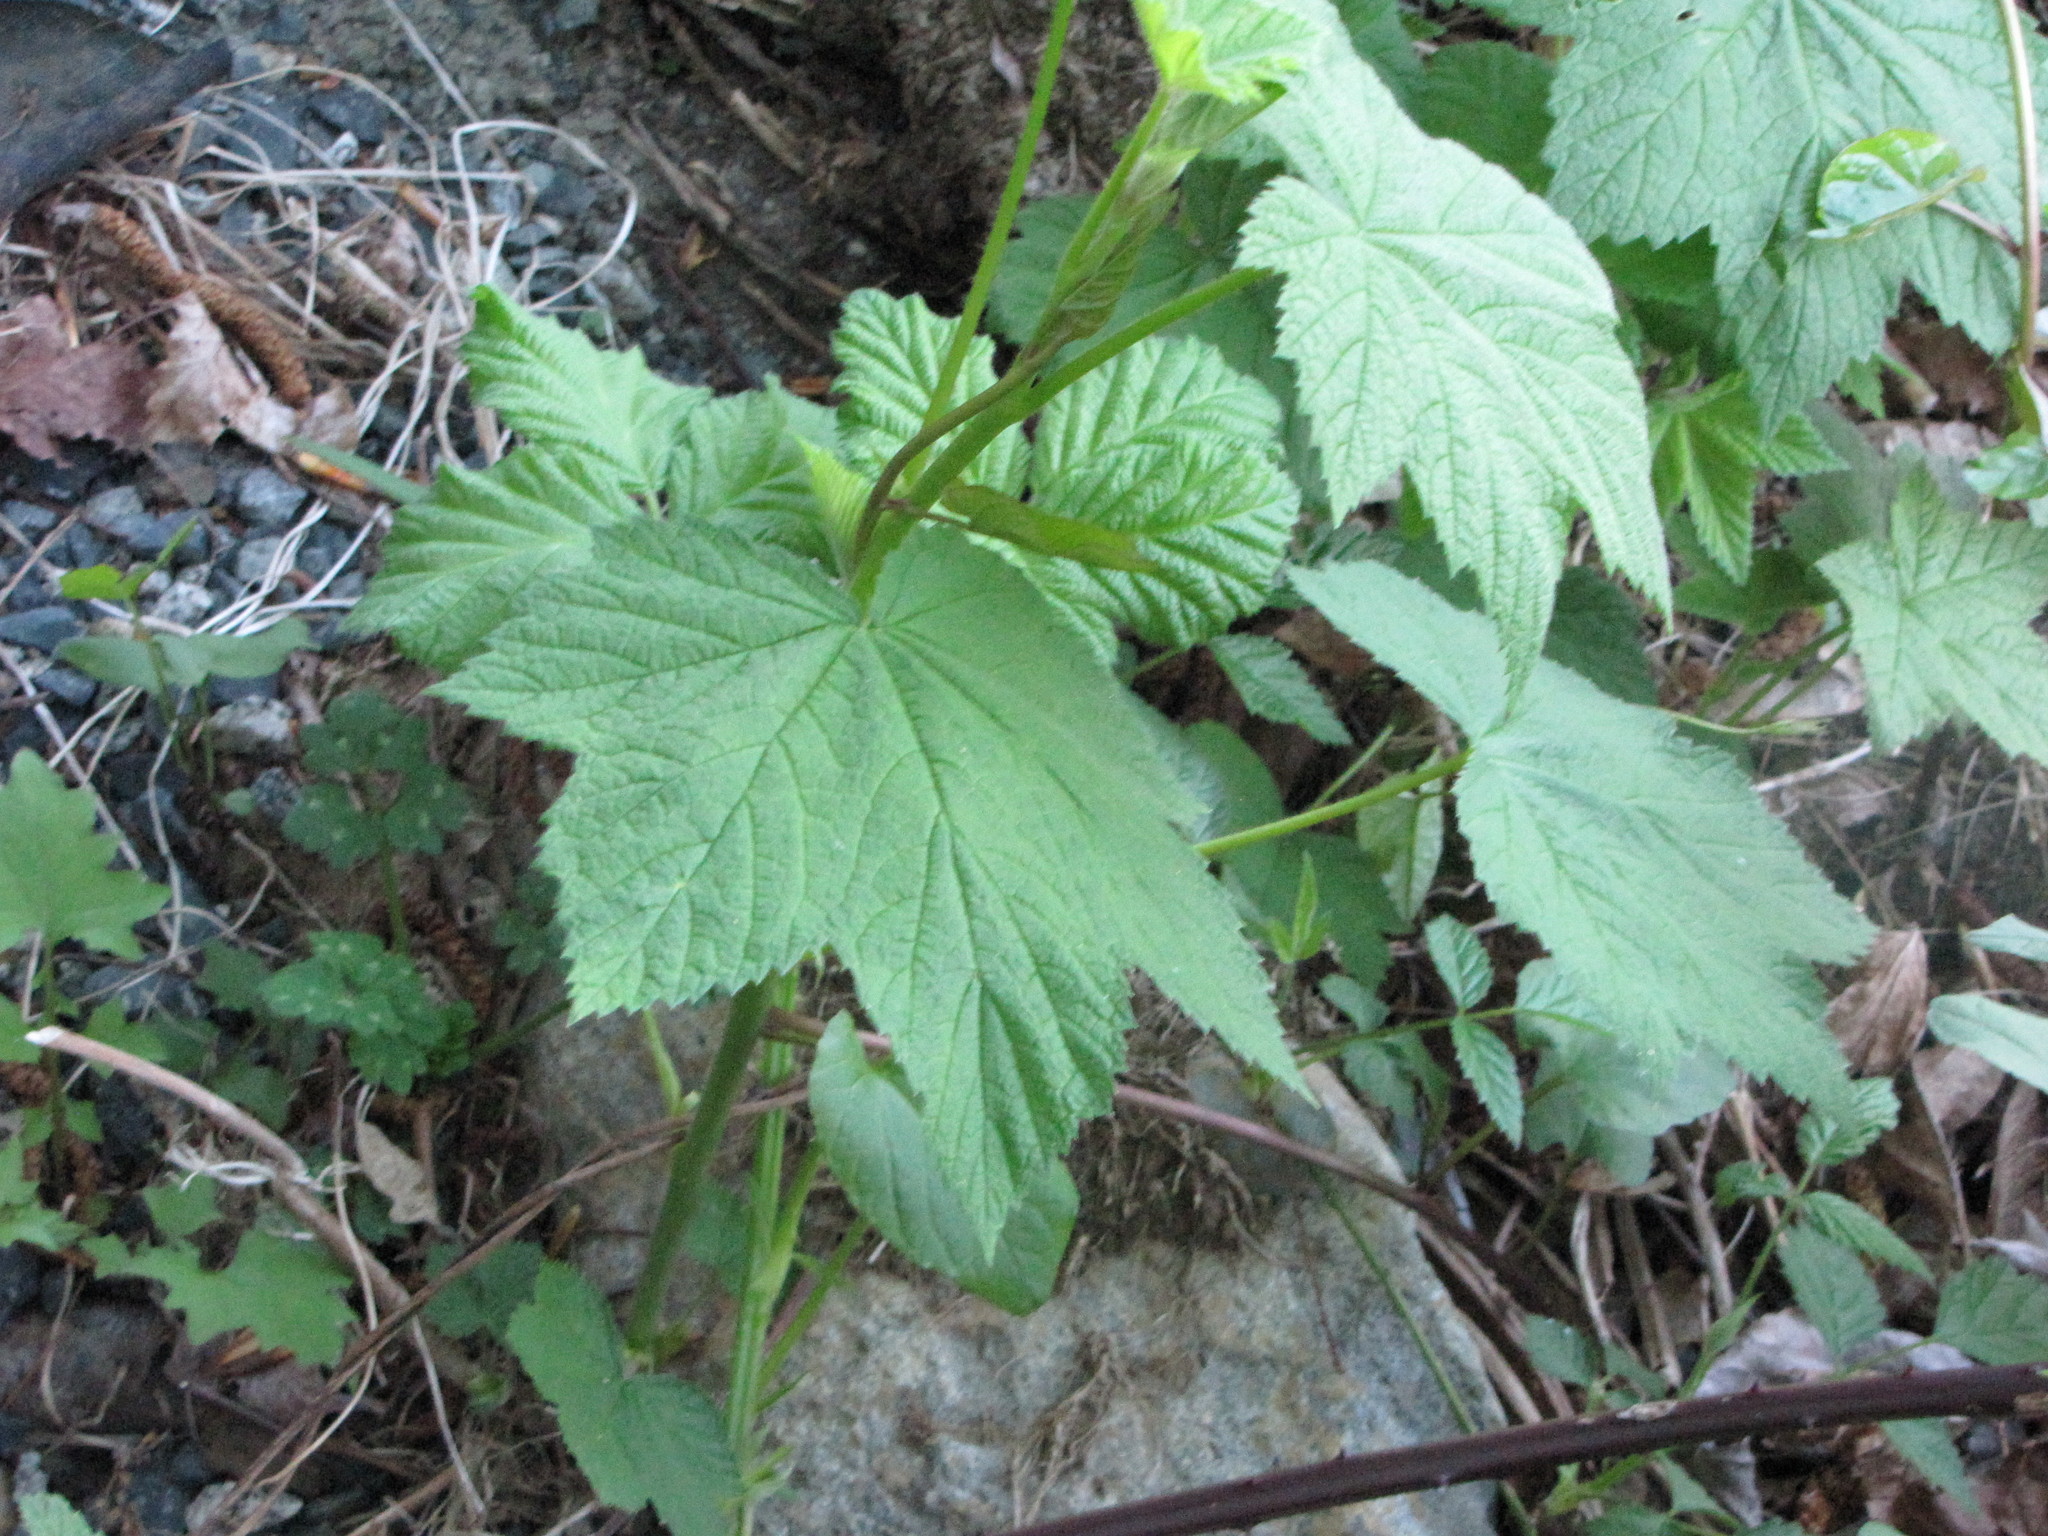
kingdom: Plantae
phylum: Tracheophyta
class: Magnoliopsida
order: Rosales
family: Rosaceae
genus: Rubus
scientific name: Rubus parviflorus
